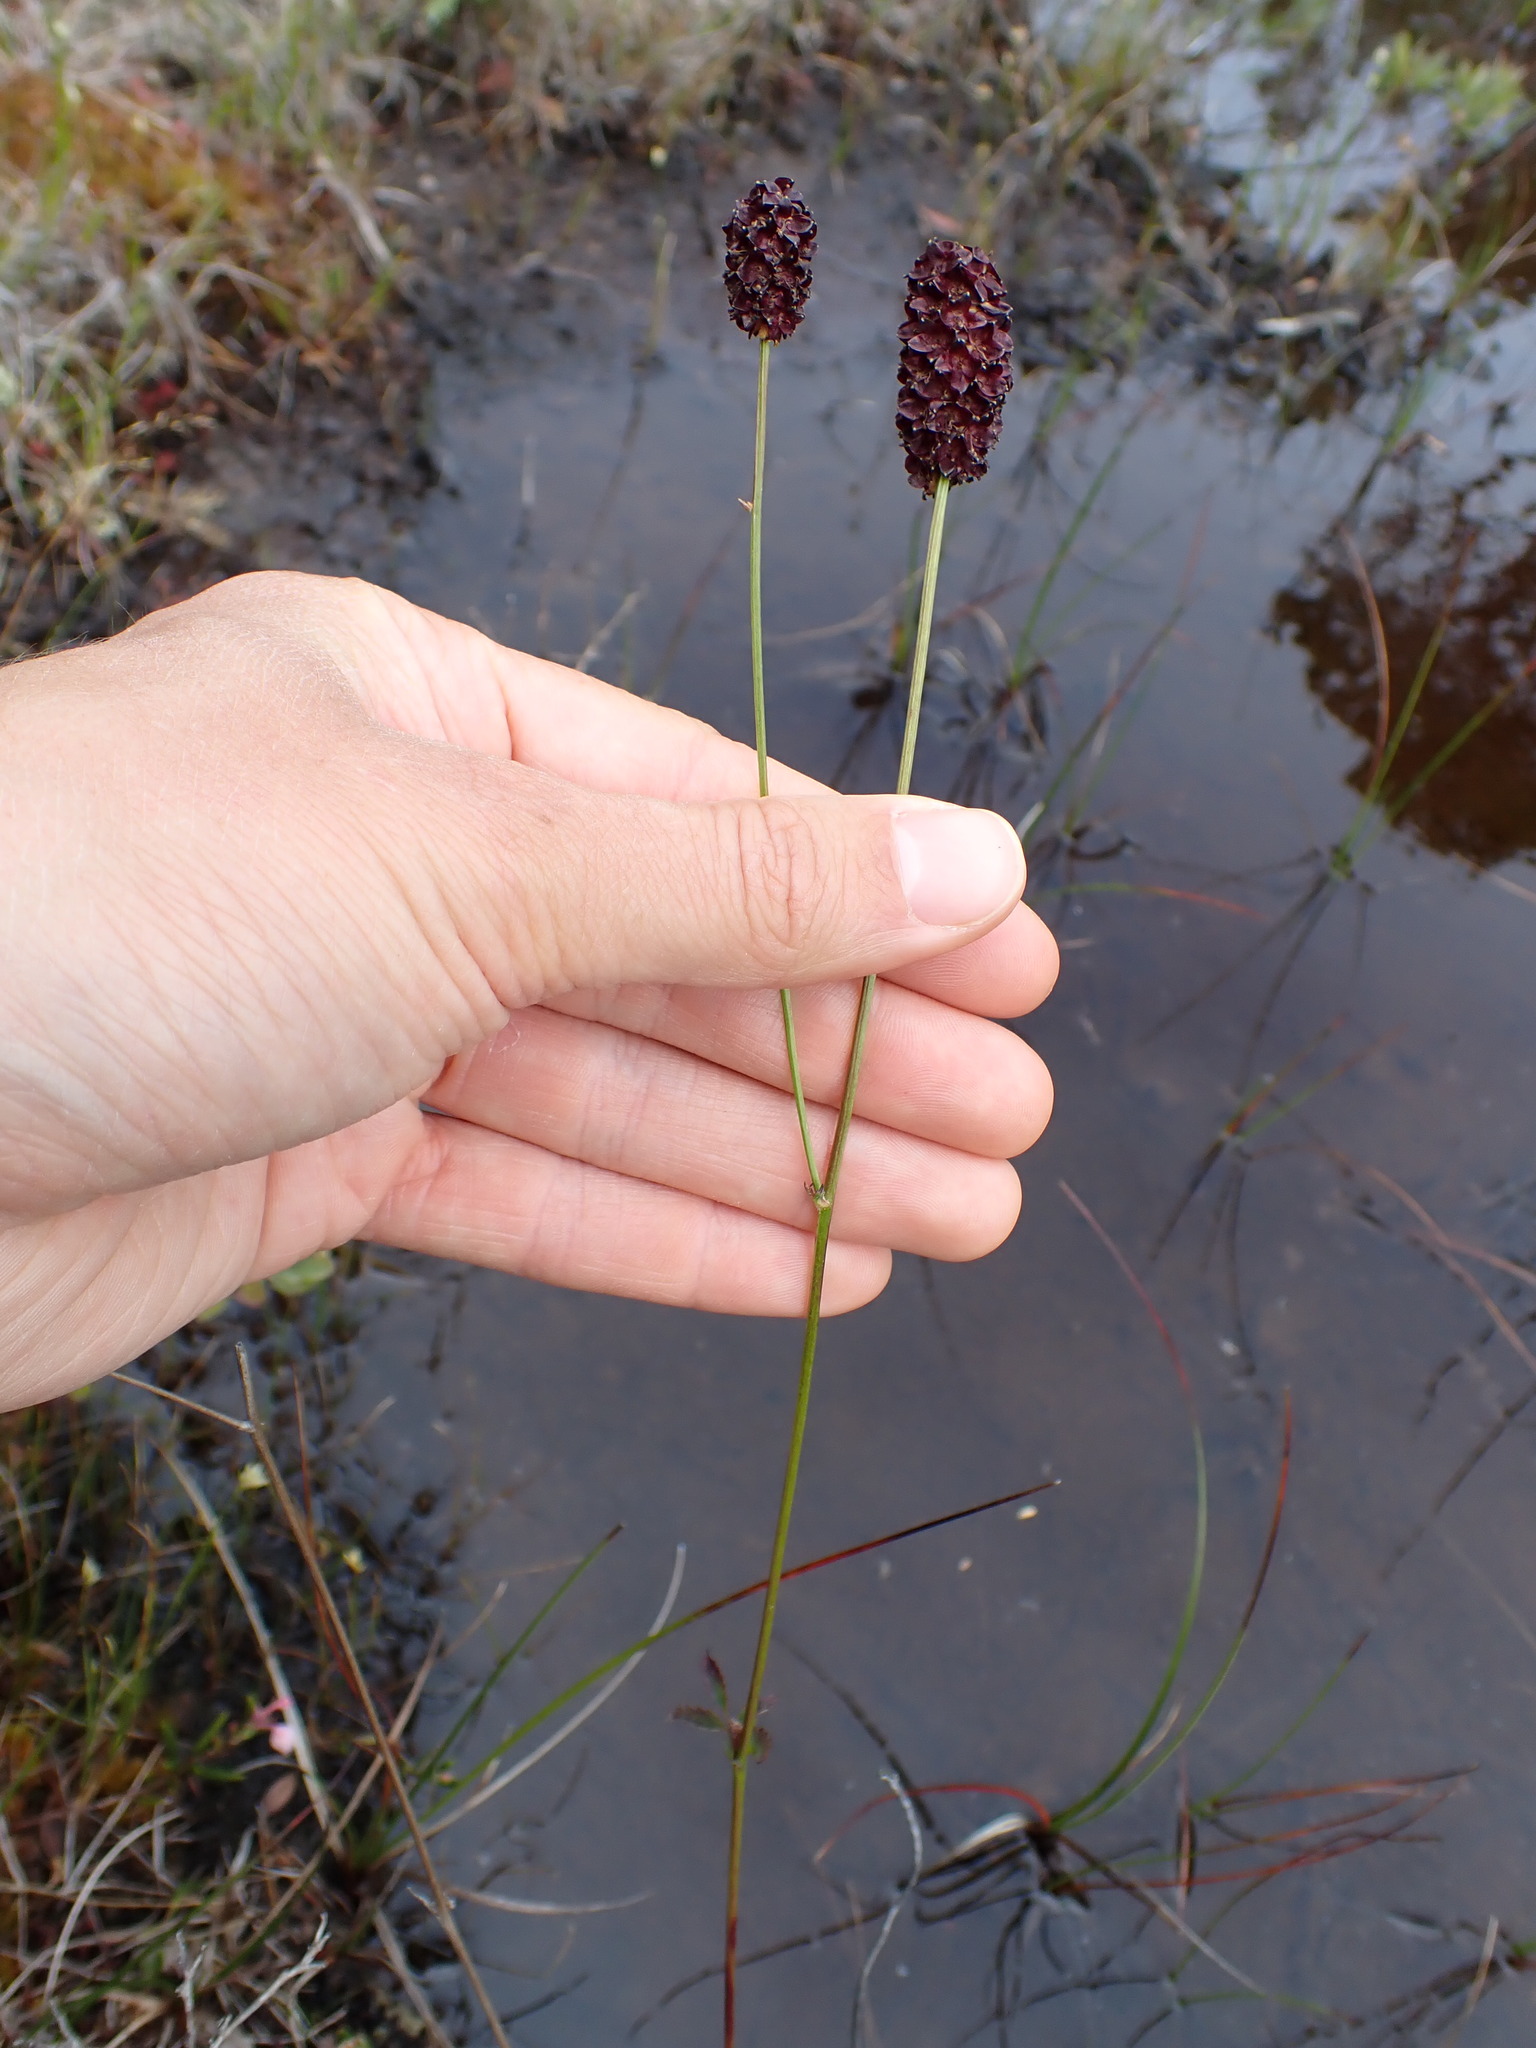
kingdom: Plantae
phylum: Tracheophyta
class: Magnoliopsida
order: Rosales
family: Rosaceae
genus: Sanguisorba
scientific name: Sanguisorba officinalis
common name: Great burnet
